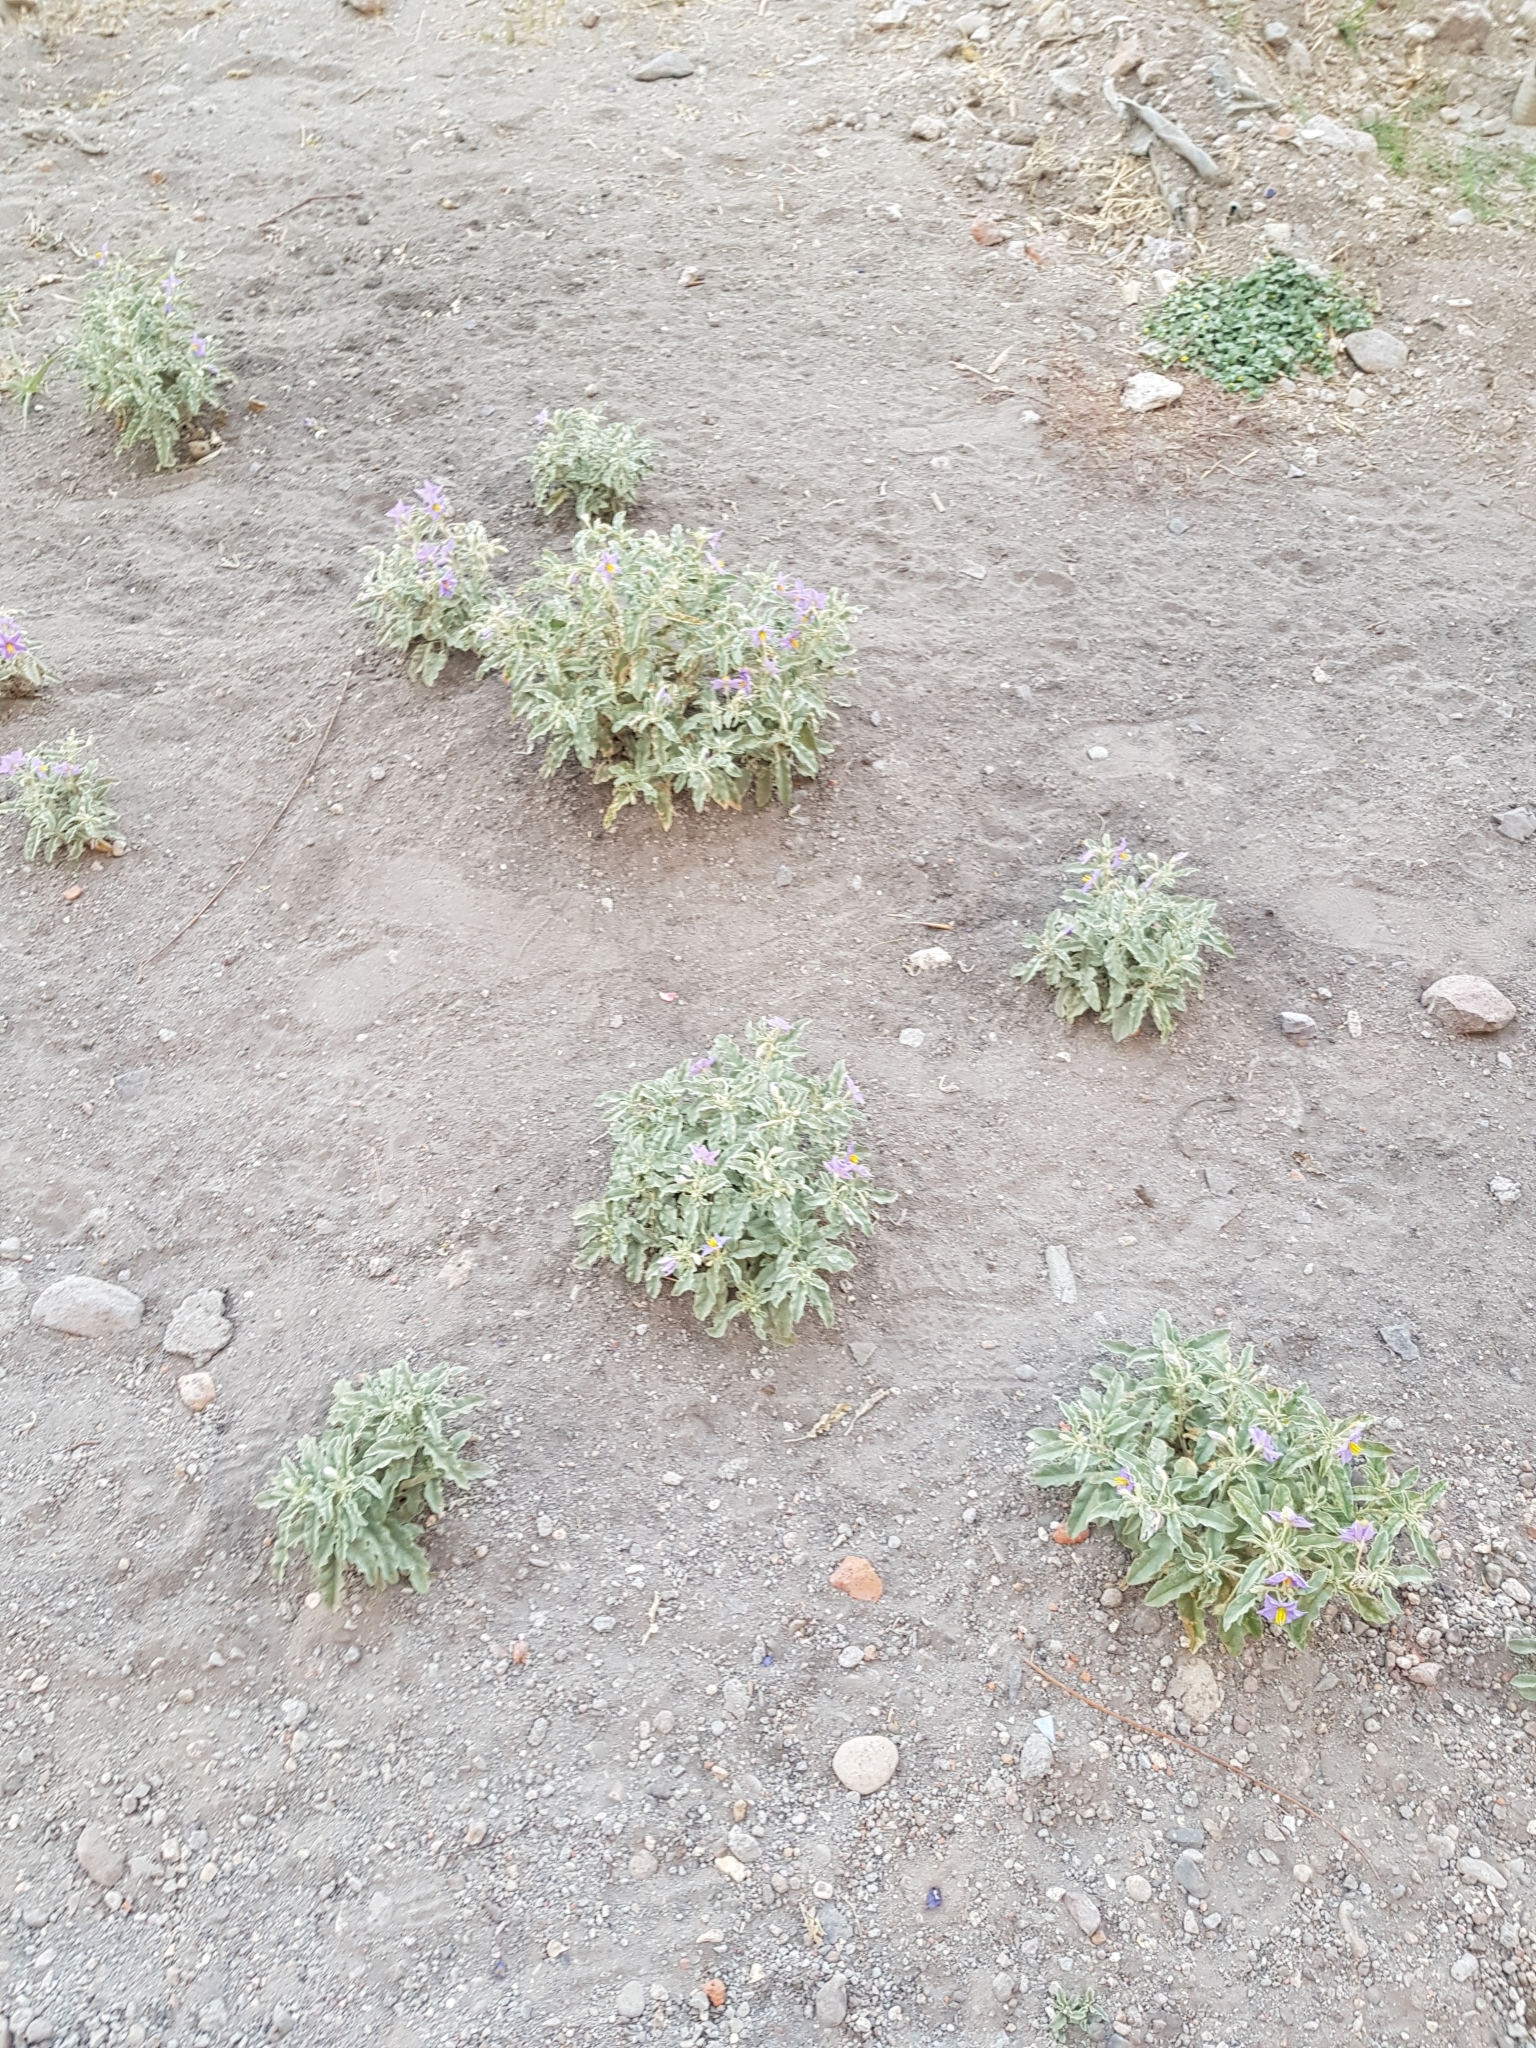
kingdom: Plantae
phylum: Tracheophyta
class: Magnoliopsida
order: Solanales
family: Solanaceae
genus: Solanum
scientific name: Solanum elaeagnifolium
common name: Silverleaf nightshade
